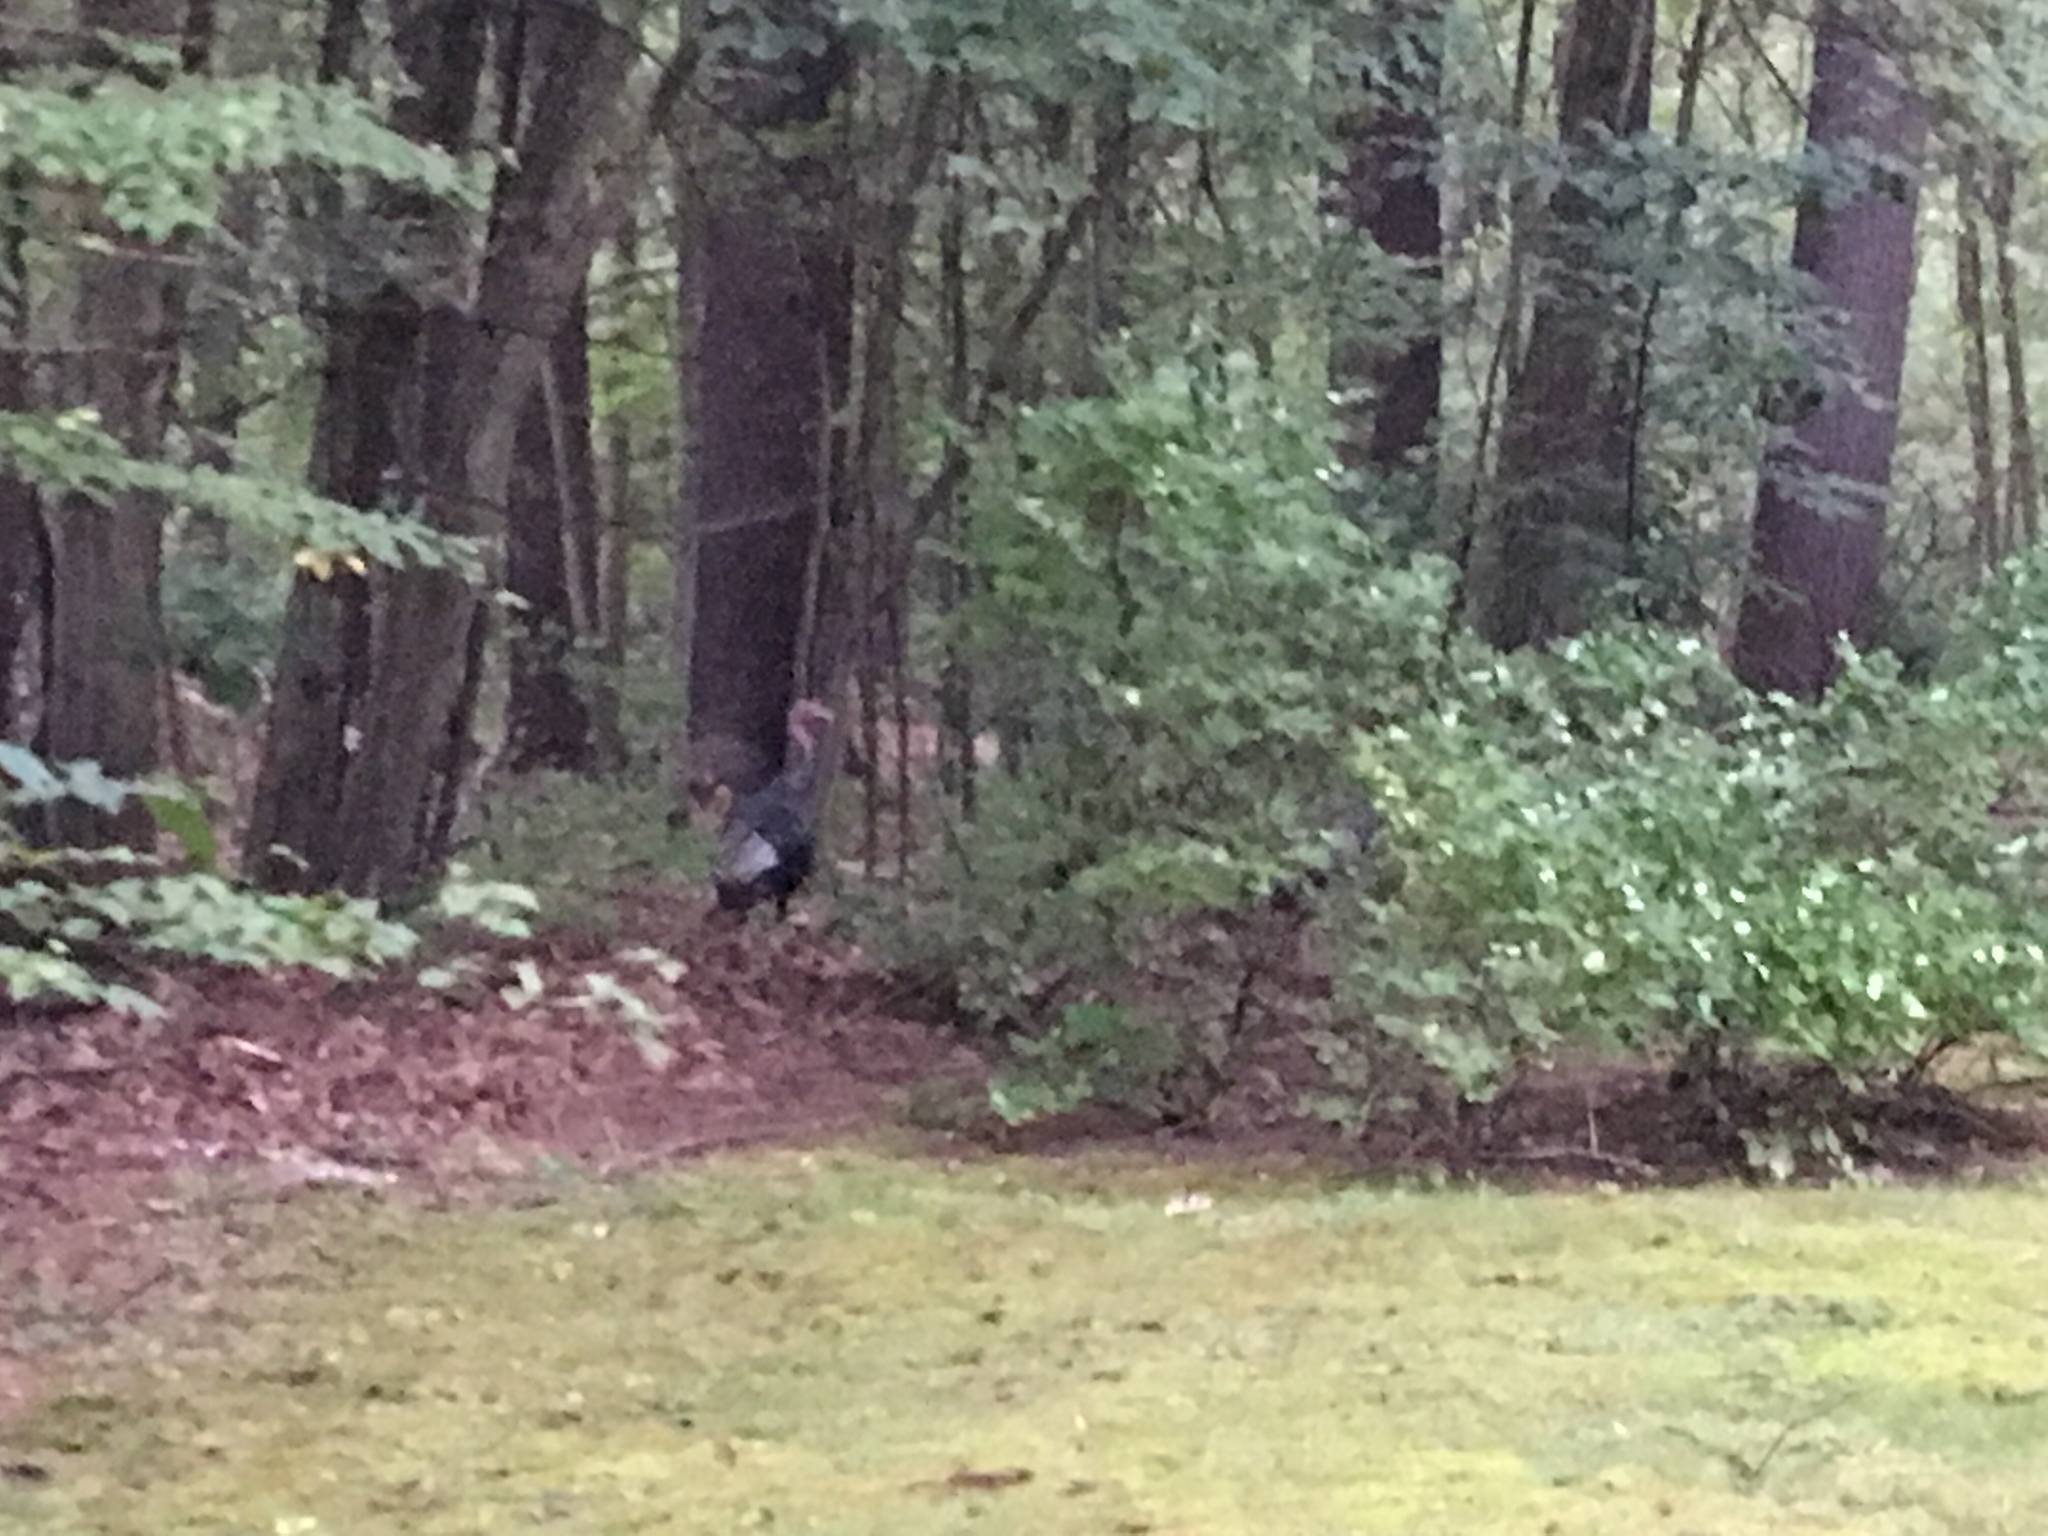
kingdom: Animalia
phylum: Chordata
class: Aves
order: Galliformes
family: Phasianidae
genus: Meleagris
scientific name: Meleagris gallopavo
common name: Wild turkey
